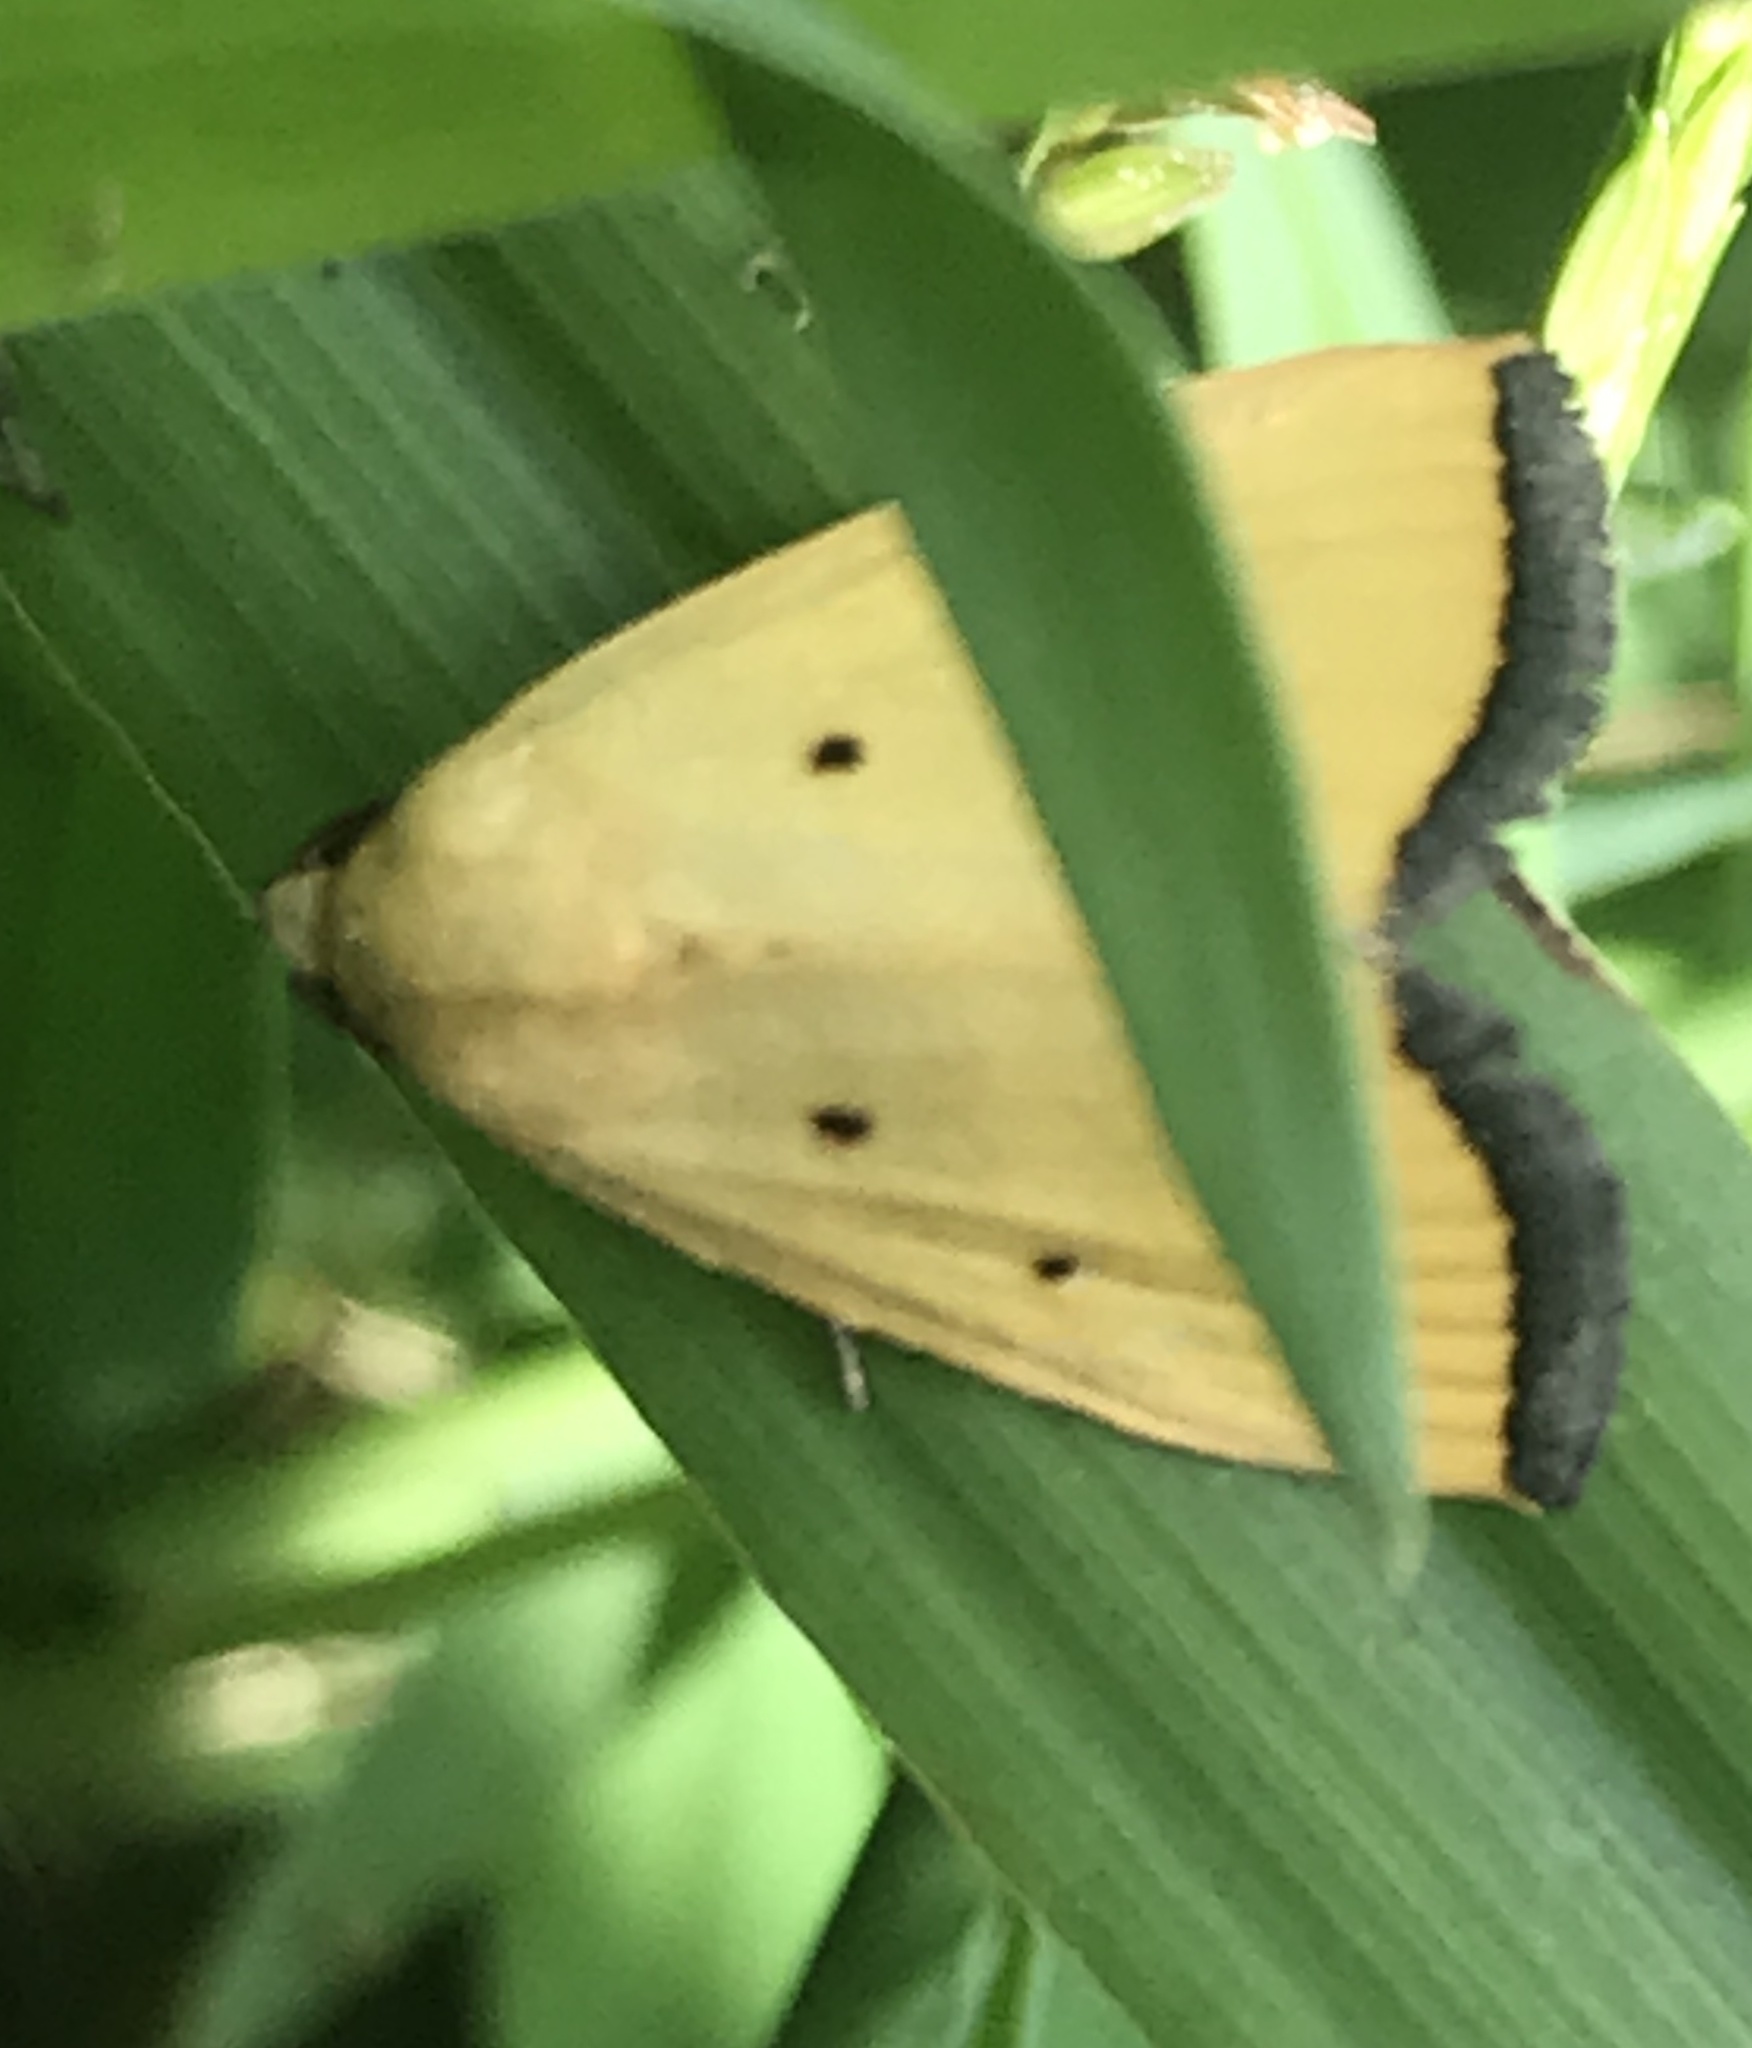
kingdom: Animalia
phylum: Arthropoda
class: Insecta
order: Lepidoptera
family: Noctuidae
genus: Marimatha
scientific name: Marimatha nigrofimbria
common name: Black-bordered lemon moth
